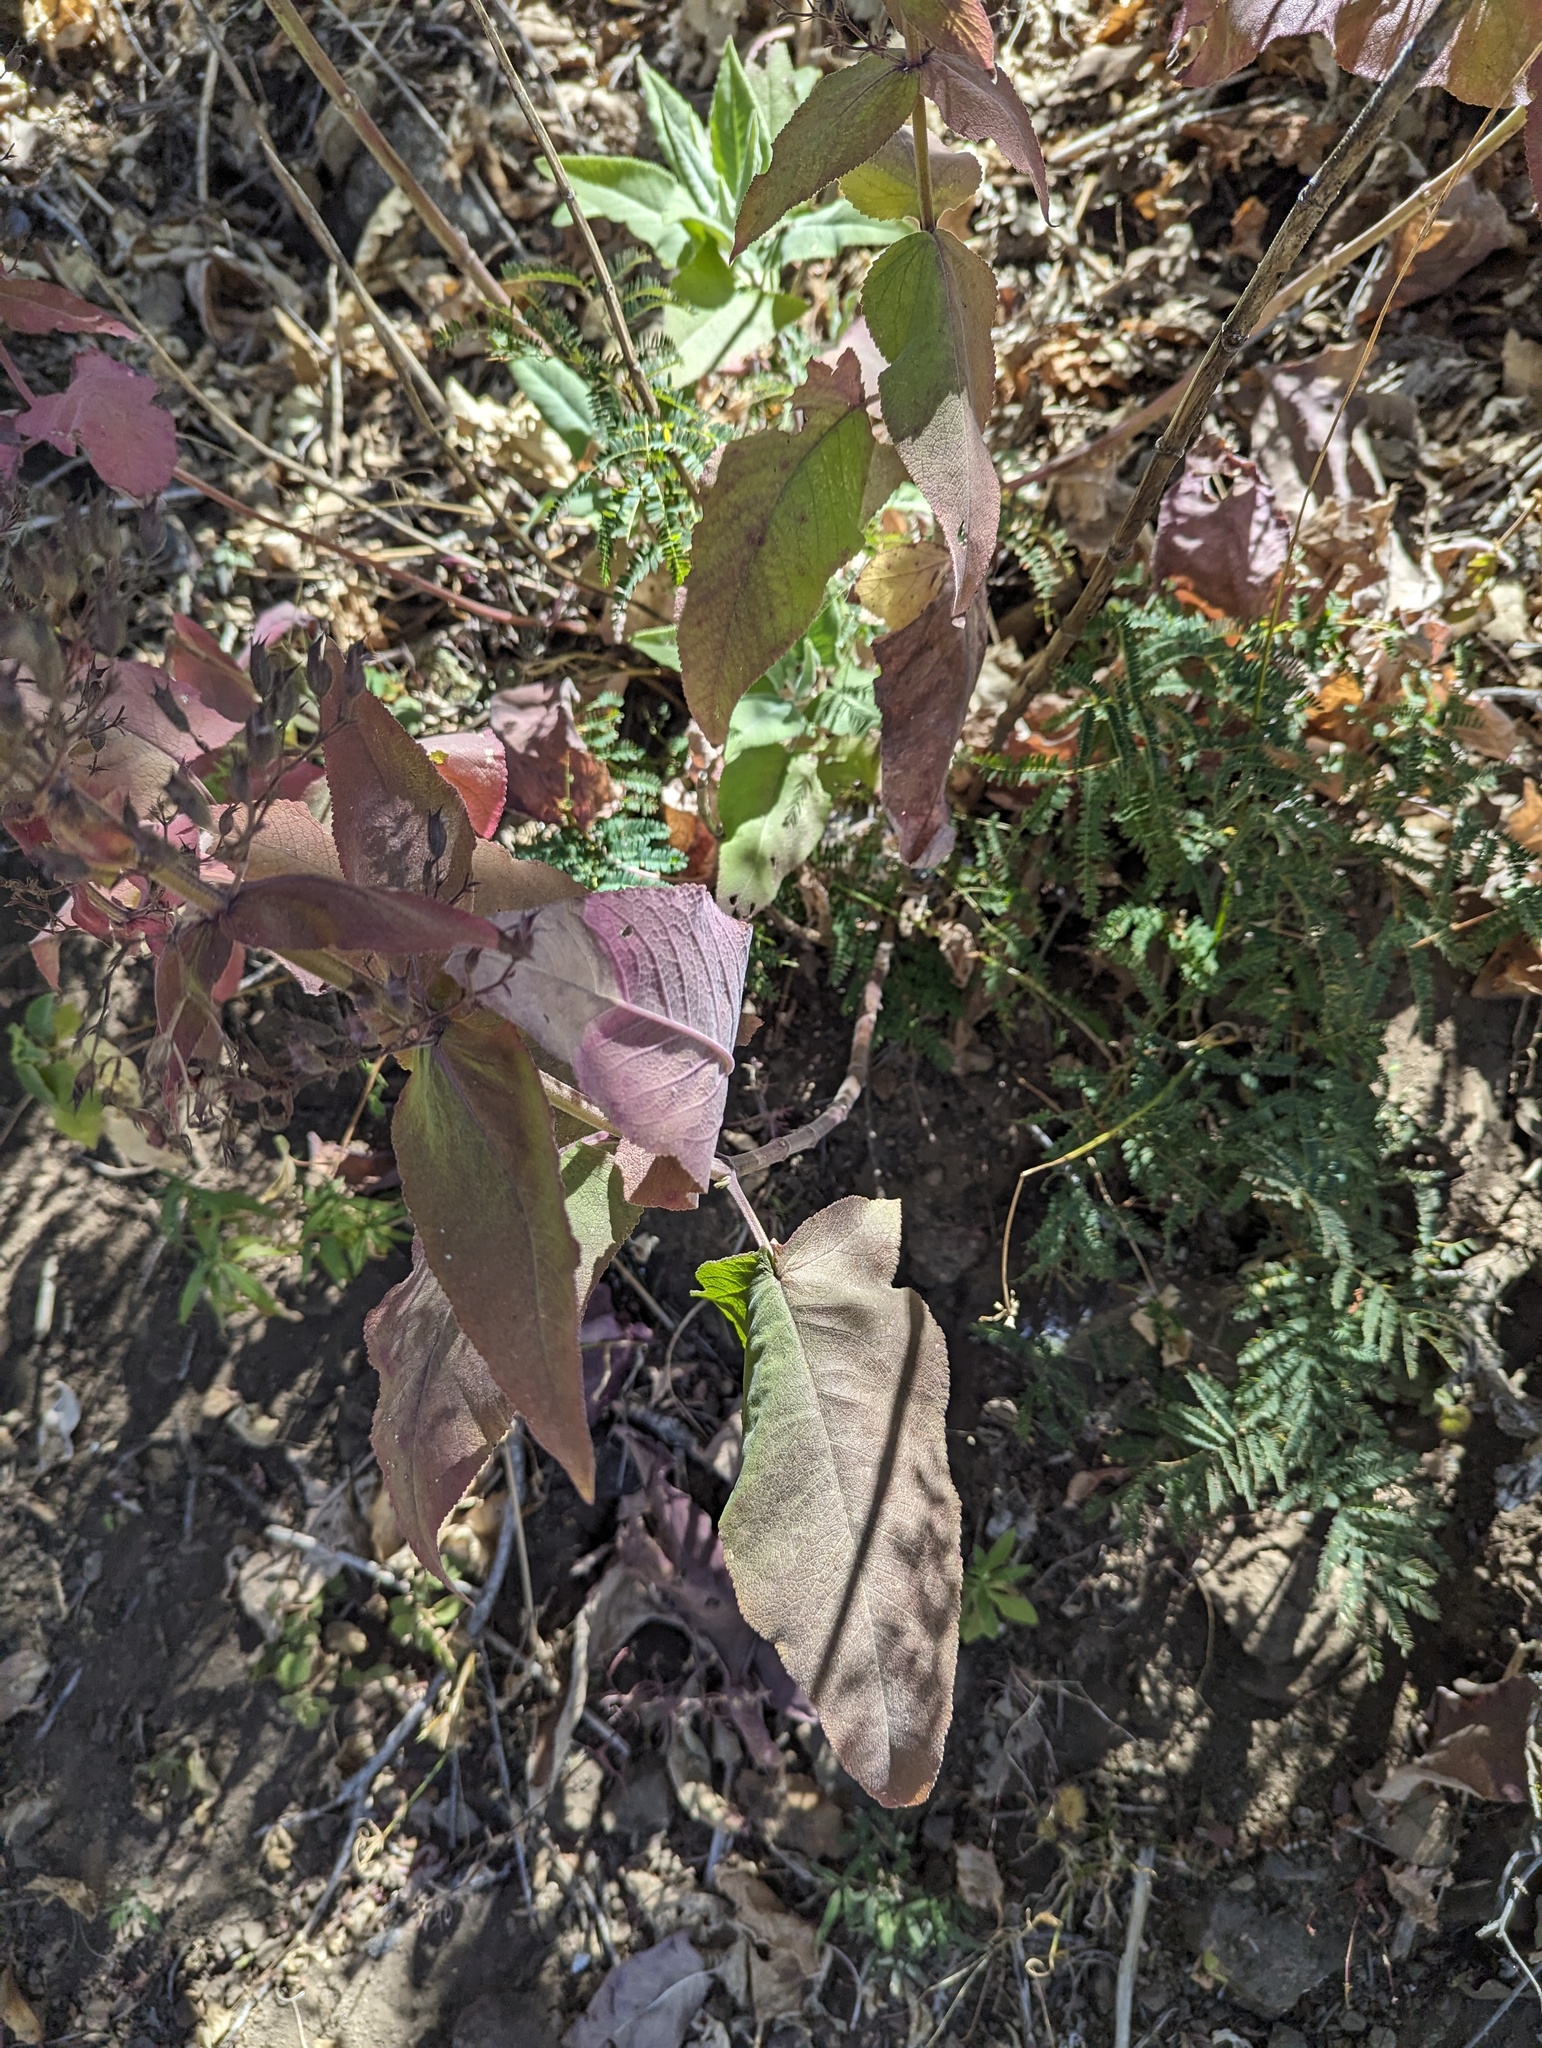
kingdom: Plantae
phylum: Tracheophyta
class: Magnoliopsida
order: Lamiales
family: Lamiaceae
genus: Lepechinia
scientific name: Lepechinia hastata
